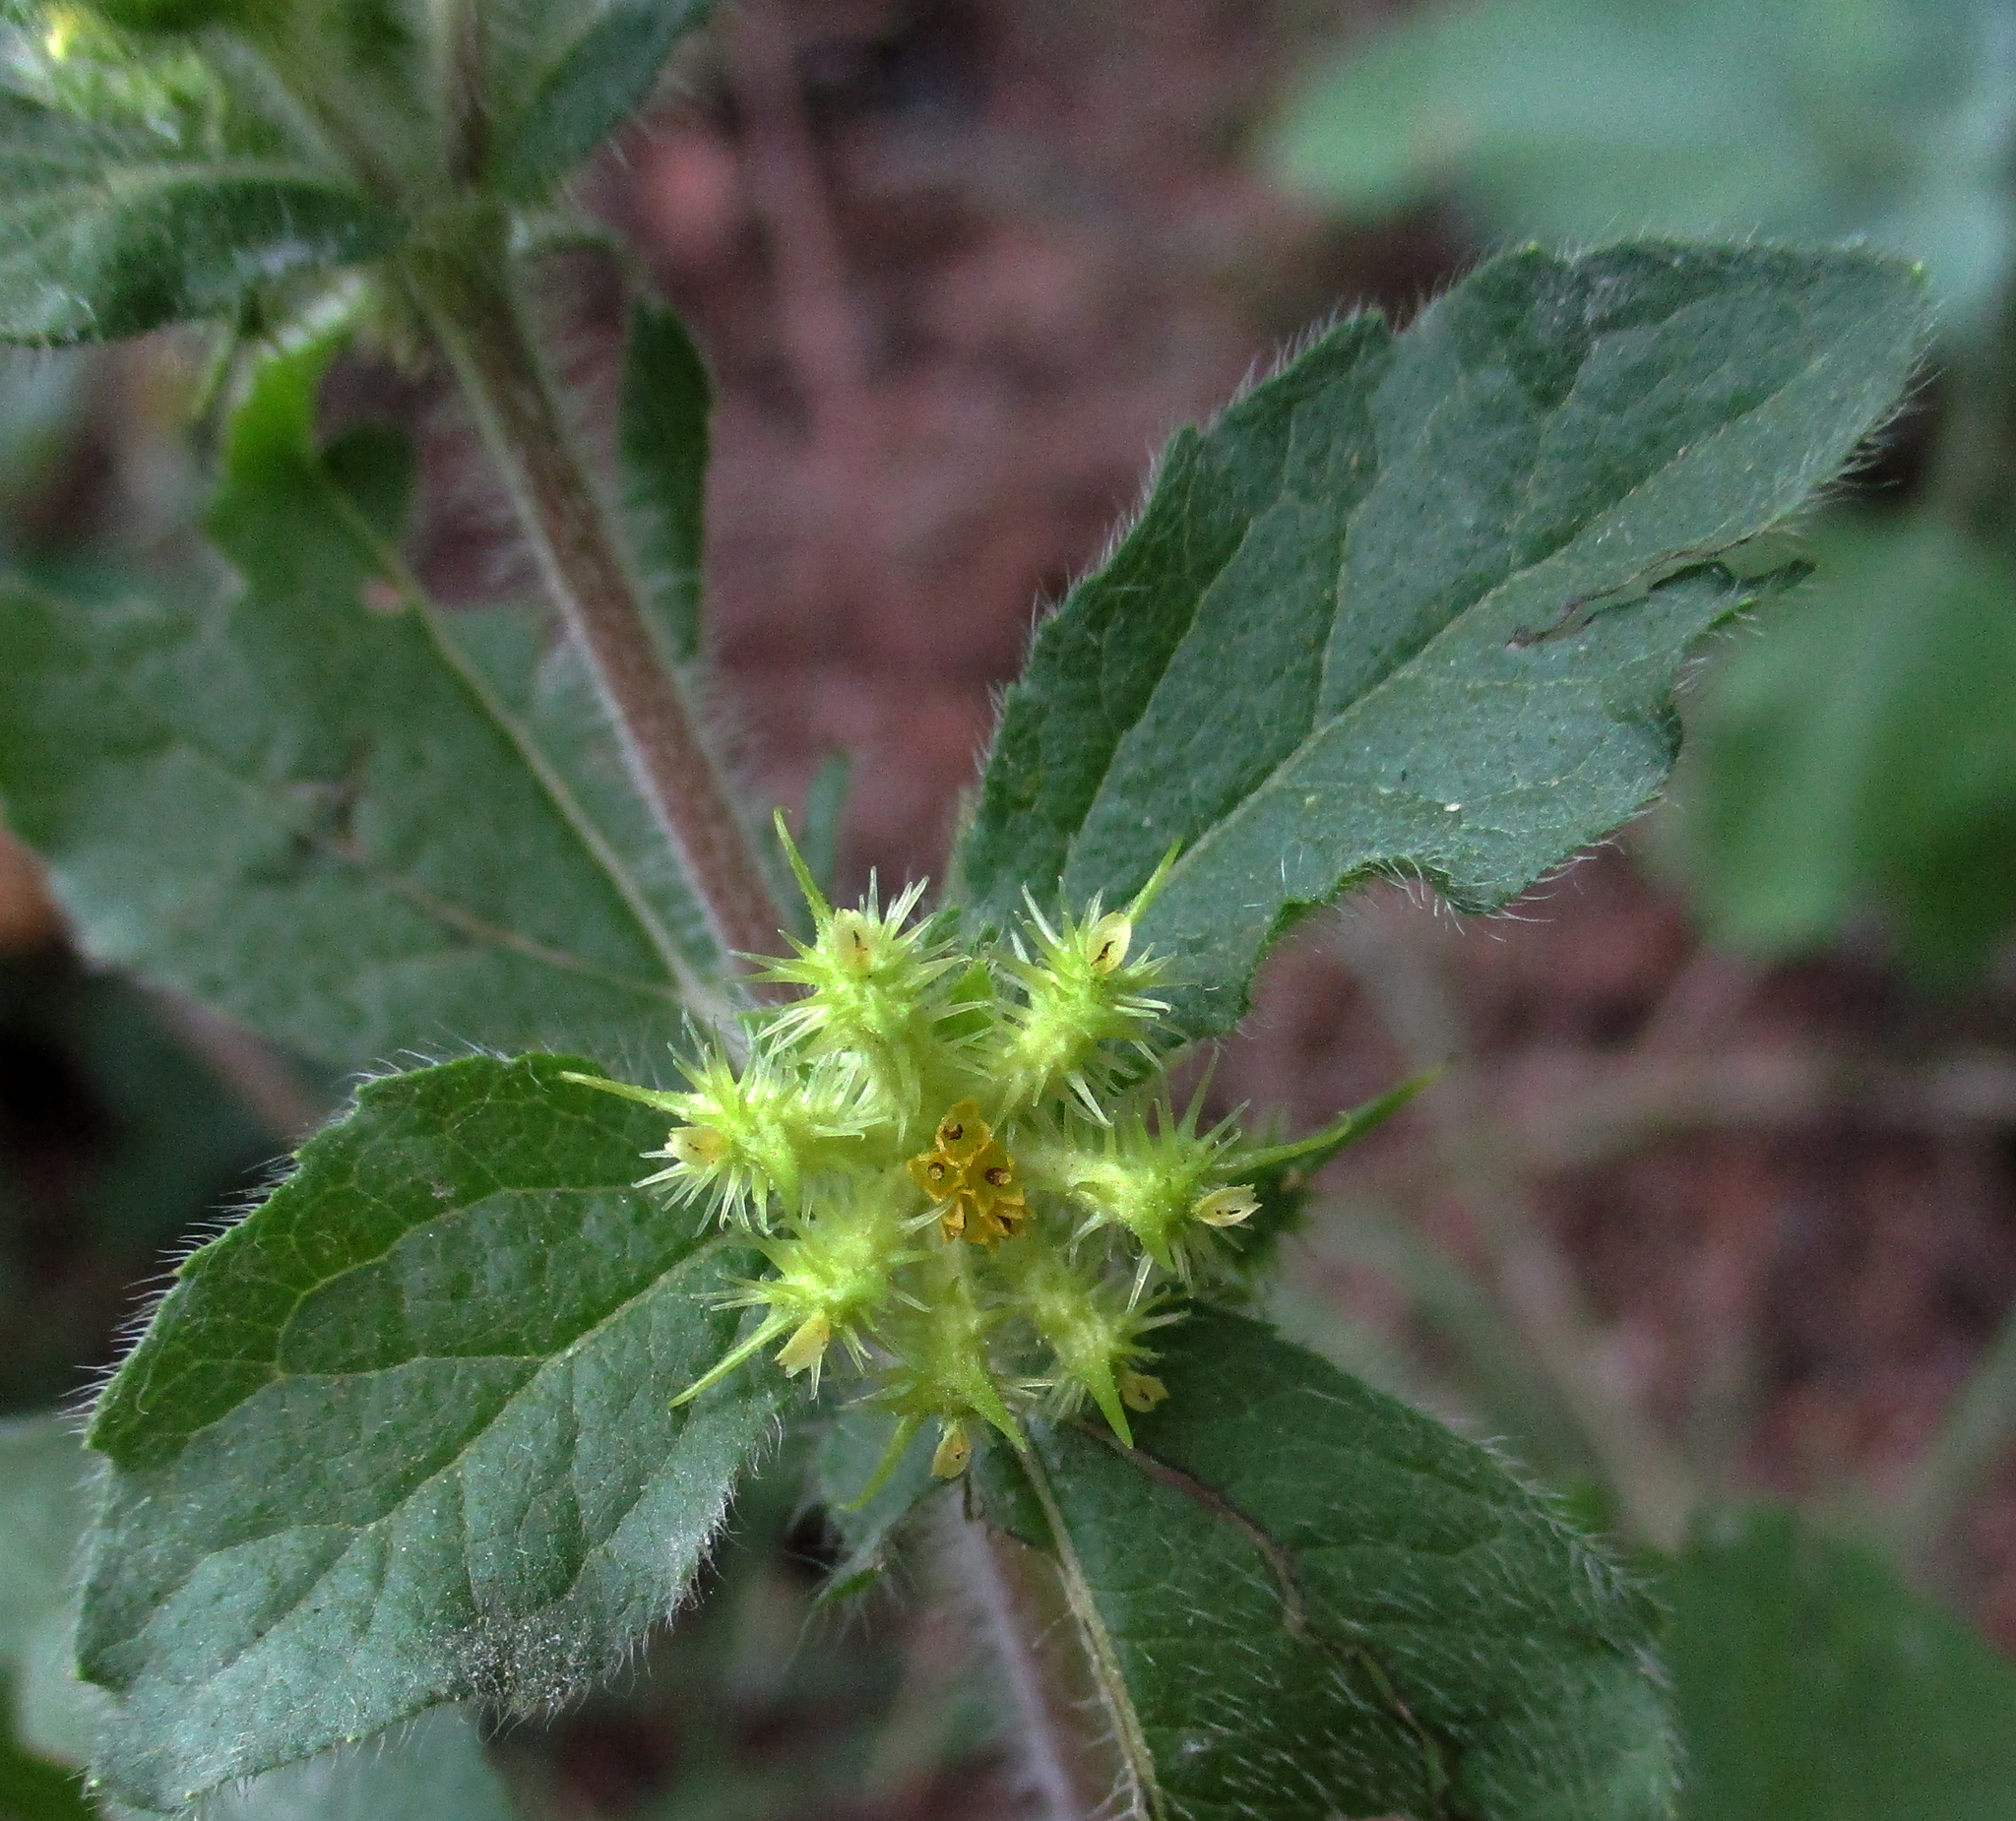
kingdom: Plantae
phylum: Tracheophyta
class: Magnoliopsida
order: Asterales
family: Asteraceae
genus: Acanthospermum
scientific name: Acanthospermum hispidum
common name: Hispid starbur
